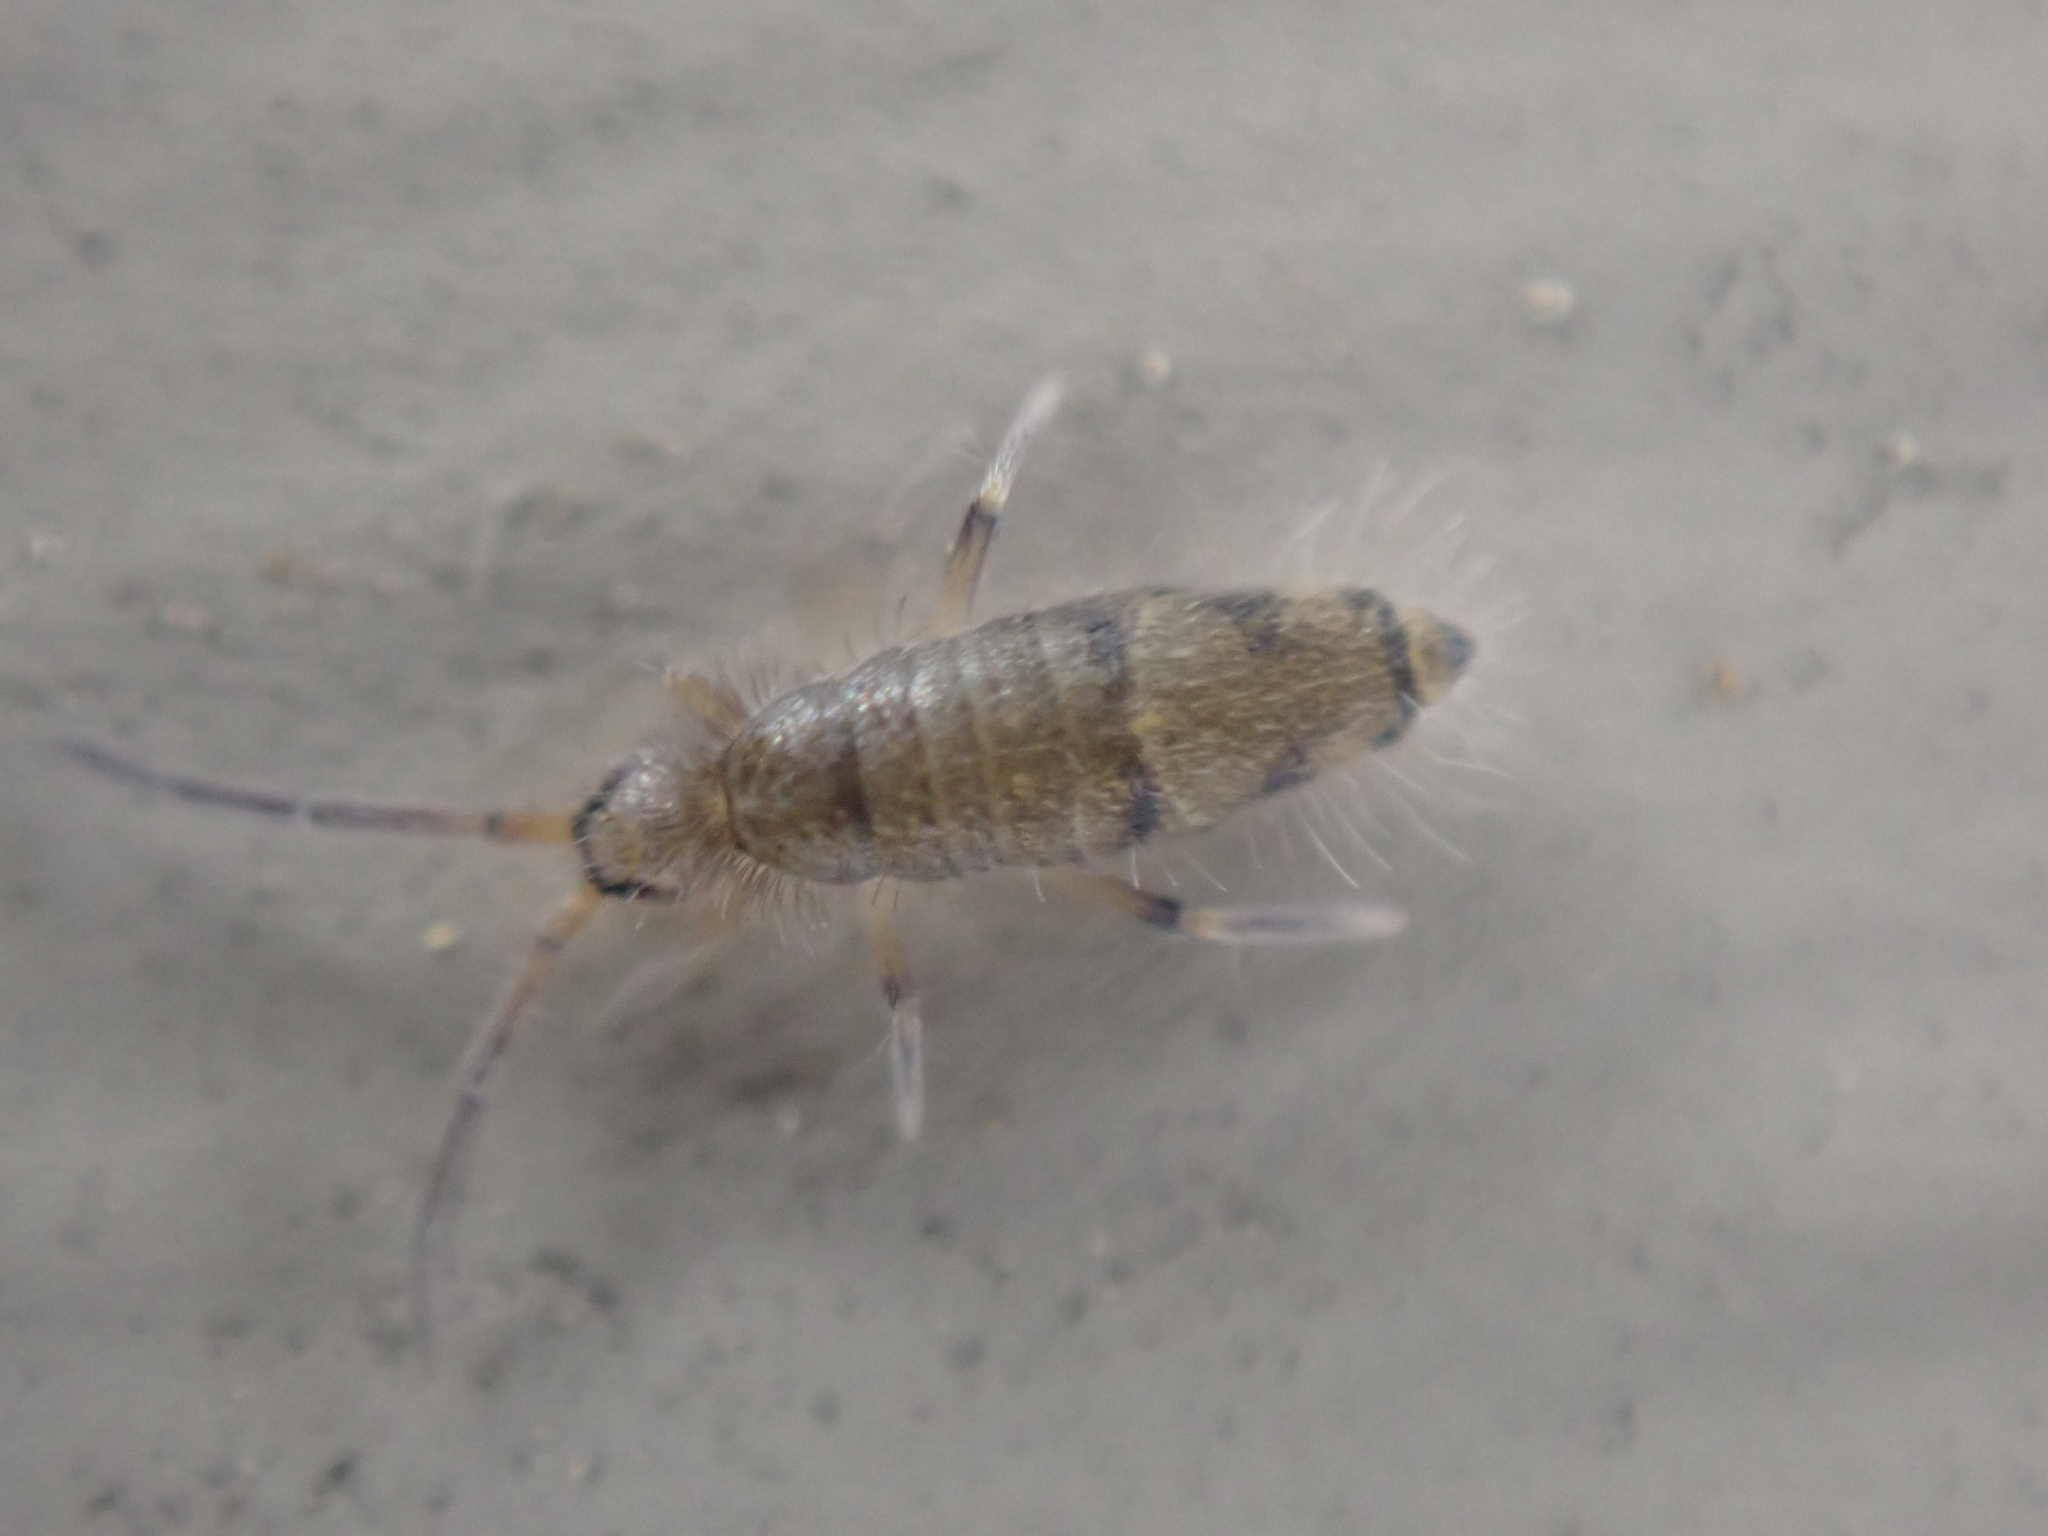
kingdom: Animalia
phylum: Arthropoda
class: Collembola
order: Entomobryomorpha
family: Entomobryidae
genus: Willowsia
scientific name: Willowsia nigromaculata
